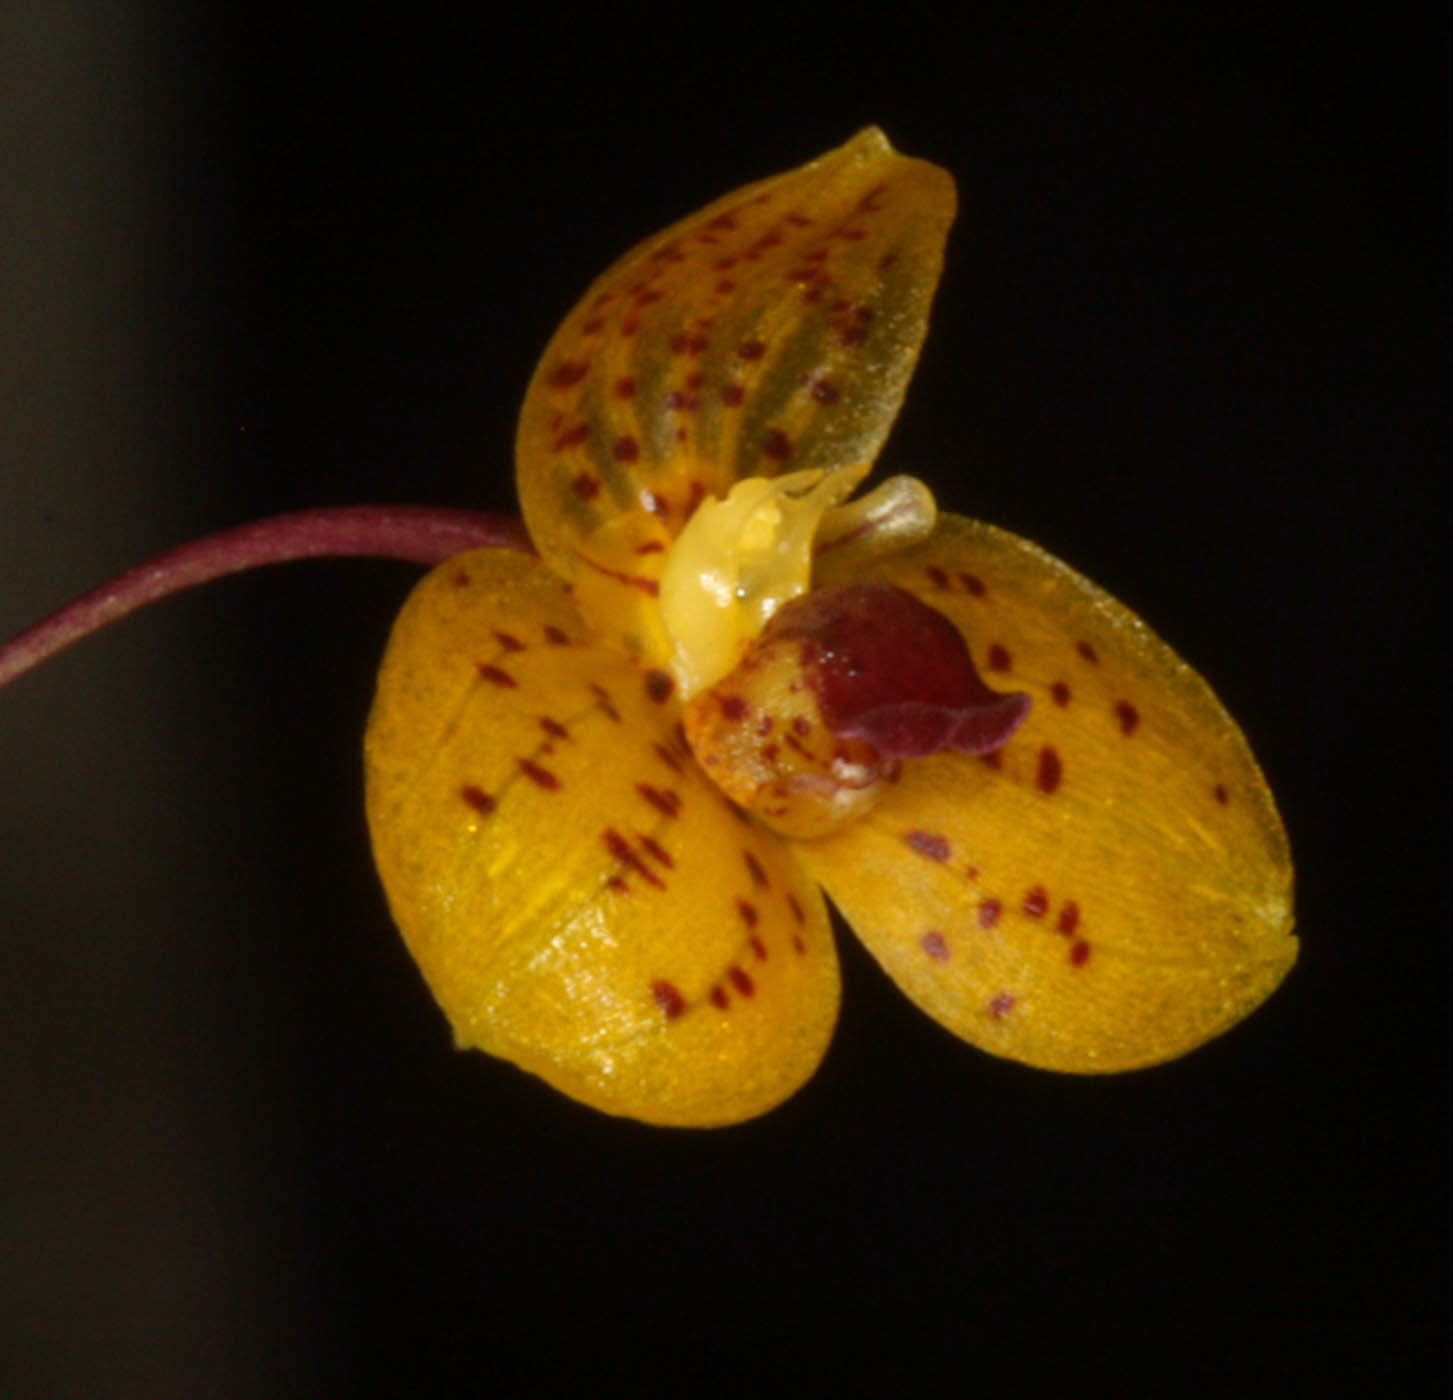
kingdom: Plantae
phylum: Tracheophyta
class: Liliopsida
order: Asparagales
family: Orchidaceae
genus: Bulbophyllum
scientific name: Bulbophyllum analamazoatrae
